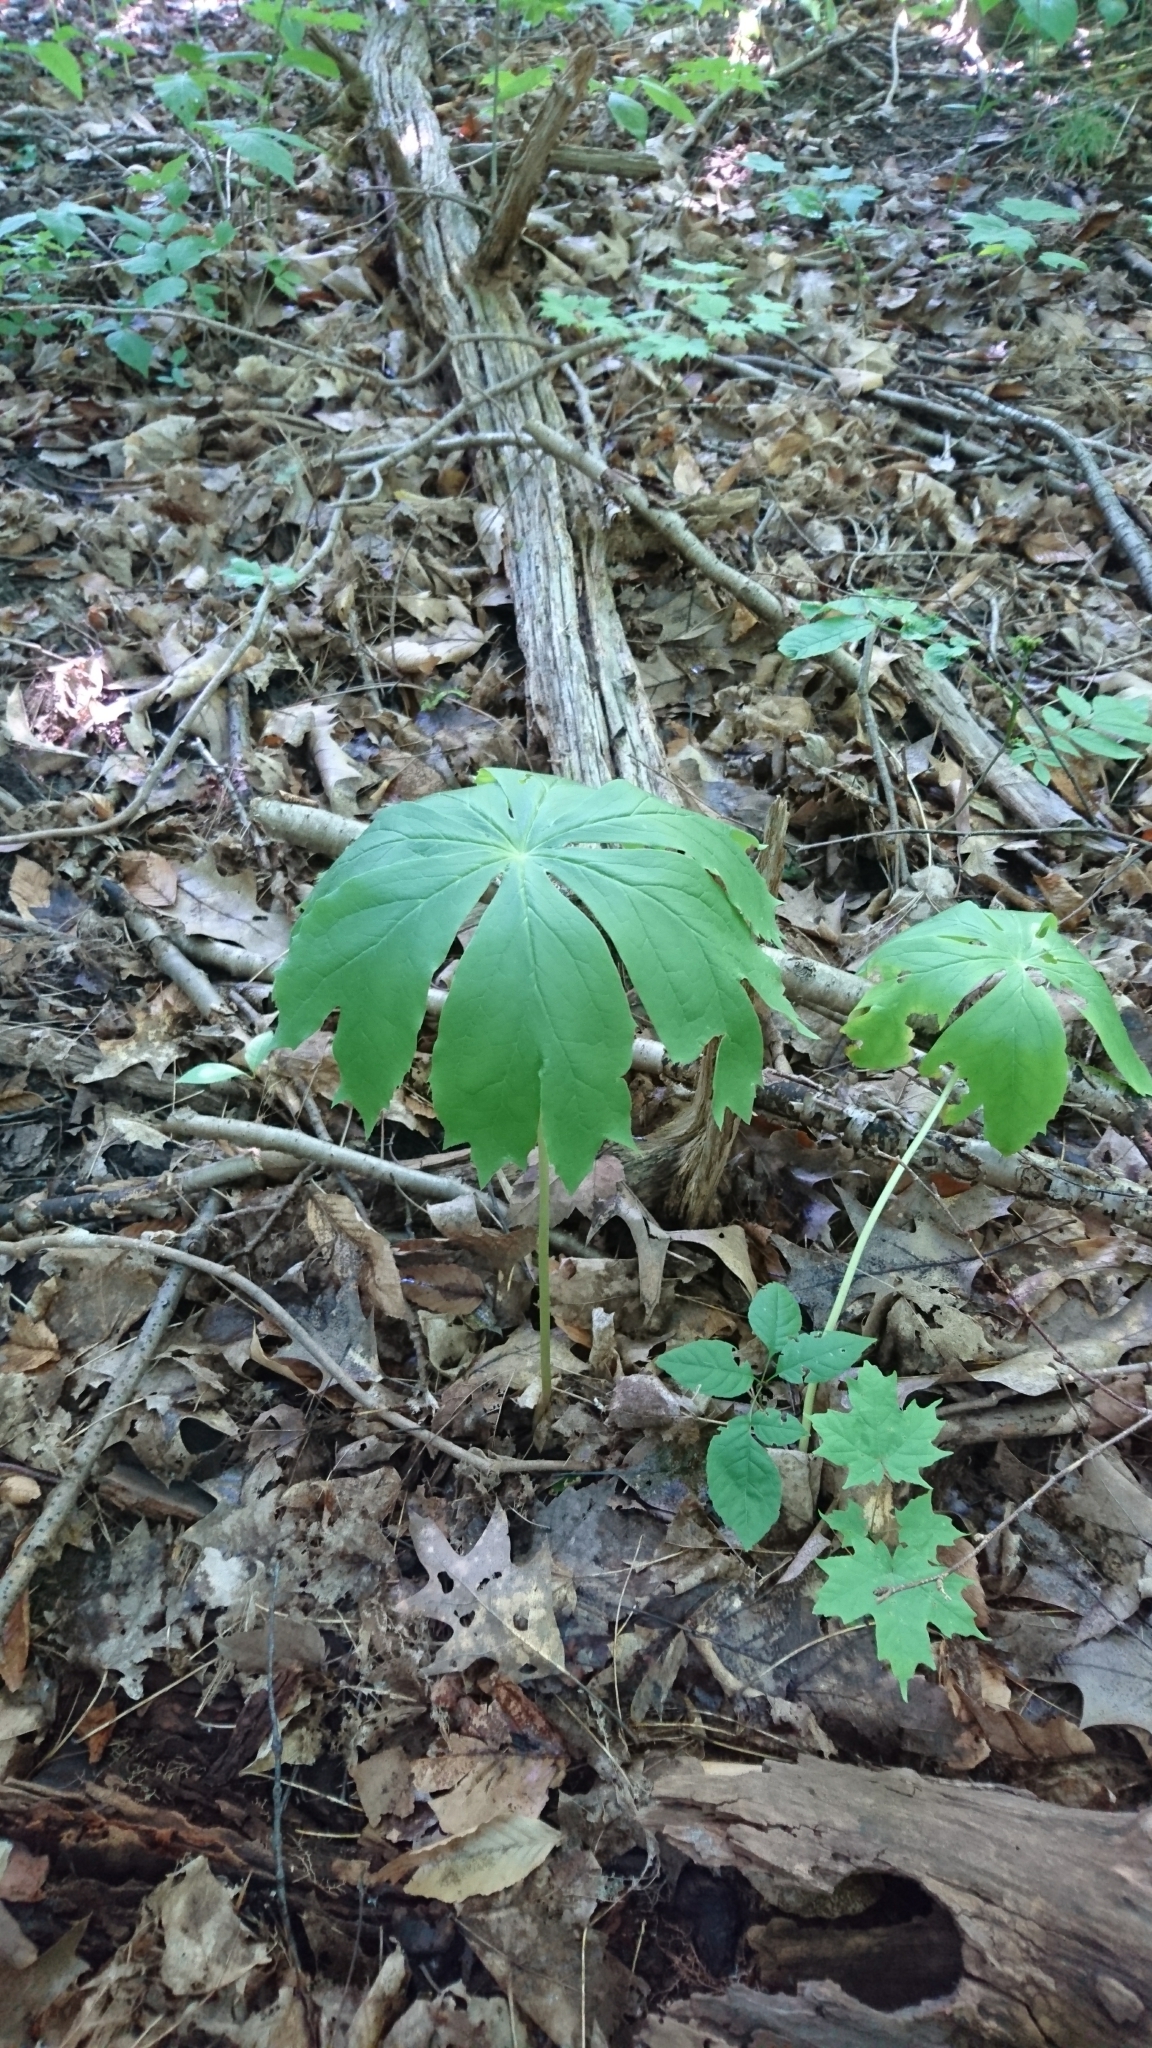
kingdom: Plantae
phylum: Tracheophyta
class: Magnoliopsida
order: Ranunculales
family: Berberidaceae
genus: Podophyllum
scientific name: Podophyllum peltatum
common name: Wild mandrake
